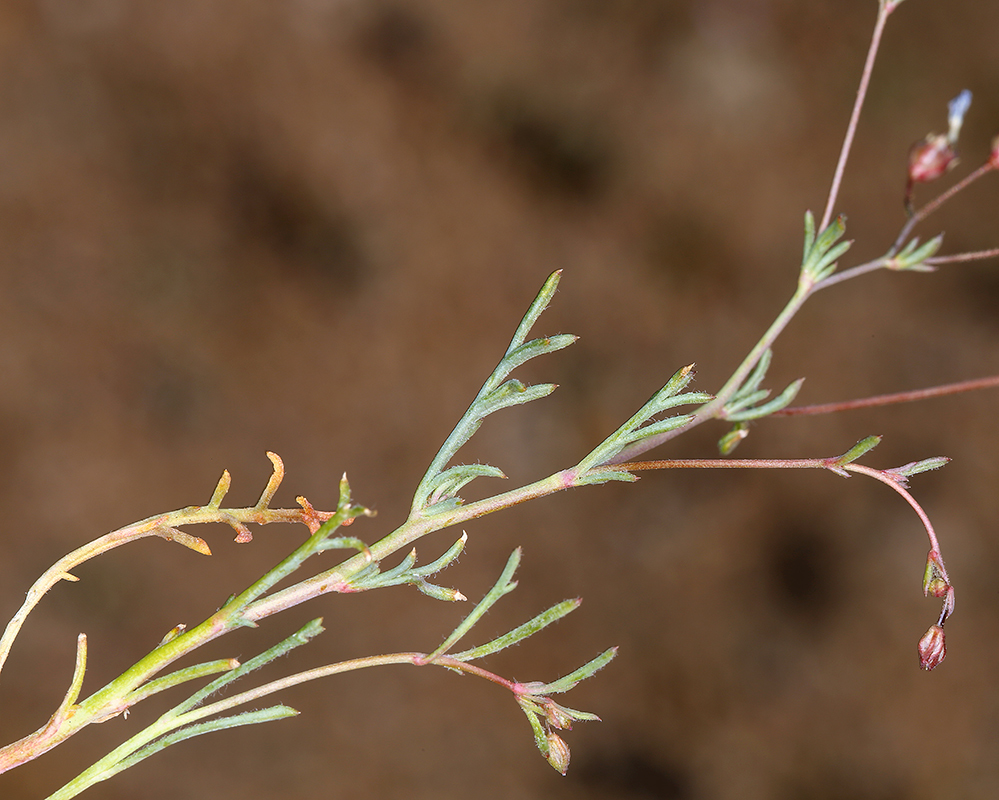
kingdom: Plantae
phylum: Tracheophyta
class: Magnoliopsida
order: Ericales
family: Polemoniaceae
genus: Gilia
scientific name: Gilia ochroleuca
